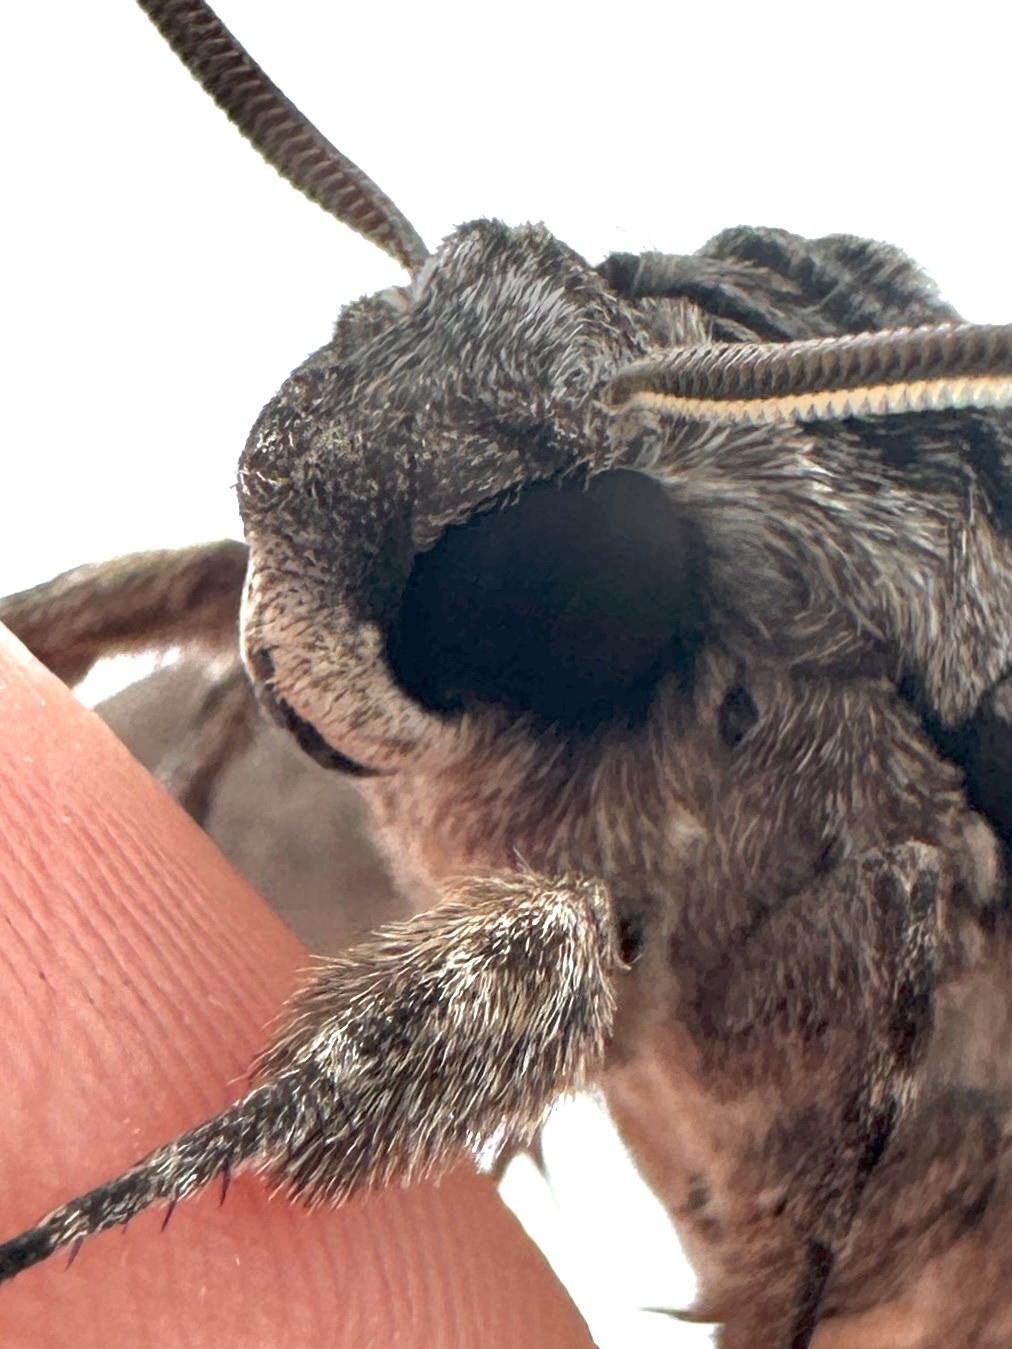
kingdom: Animalia
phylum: Arthropoda
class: Insecta
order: Lepidoptera
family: Sphingidae
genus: Agrius
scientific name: Agrius cingulata
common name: Pink-spotted hawkmoth
